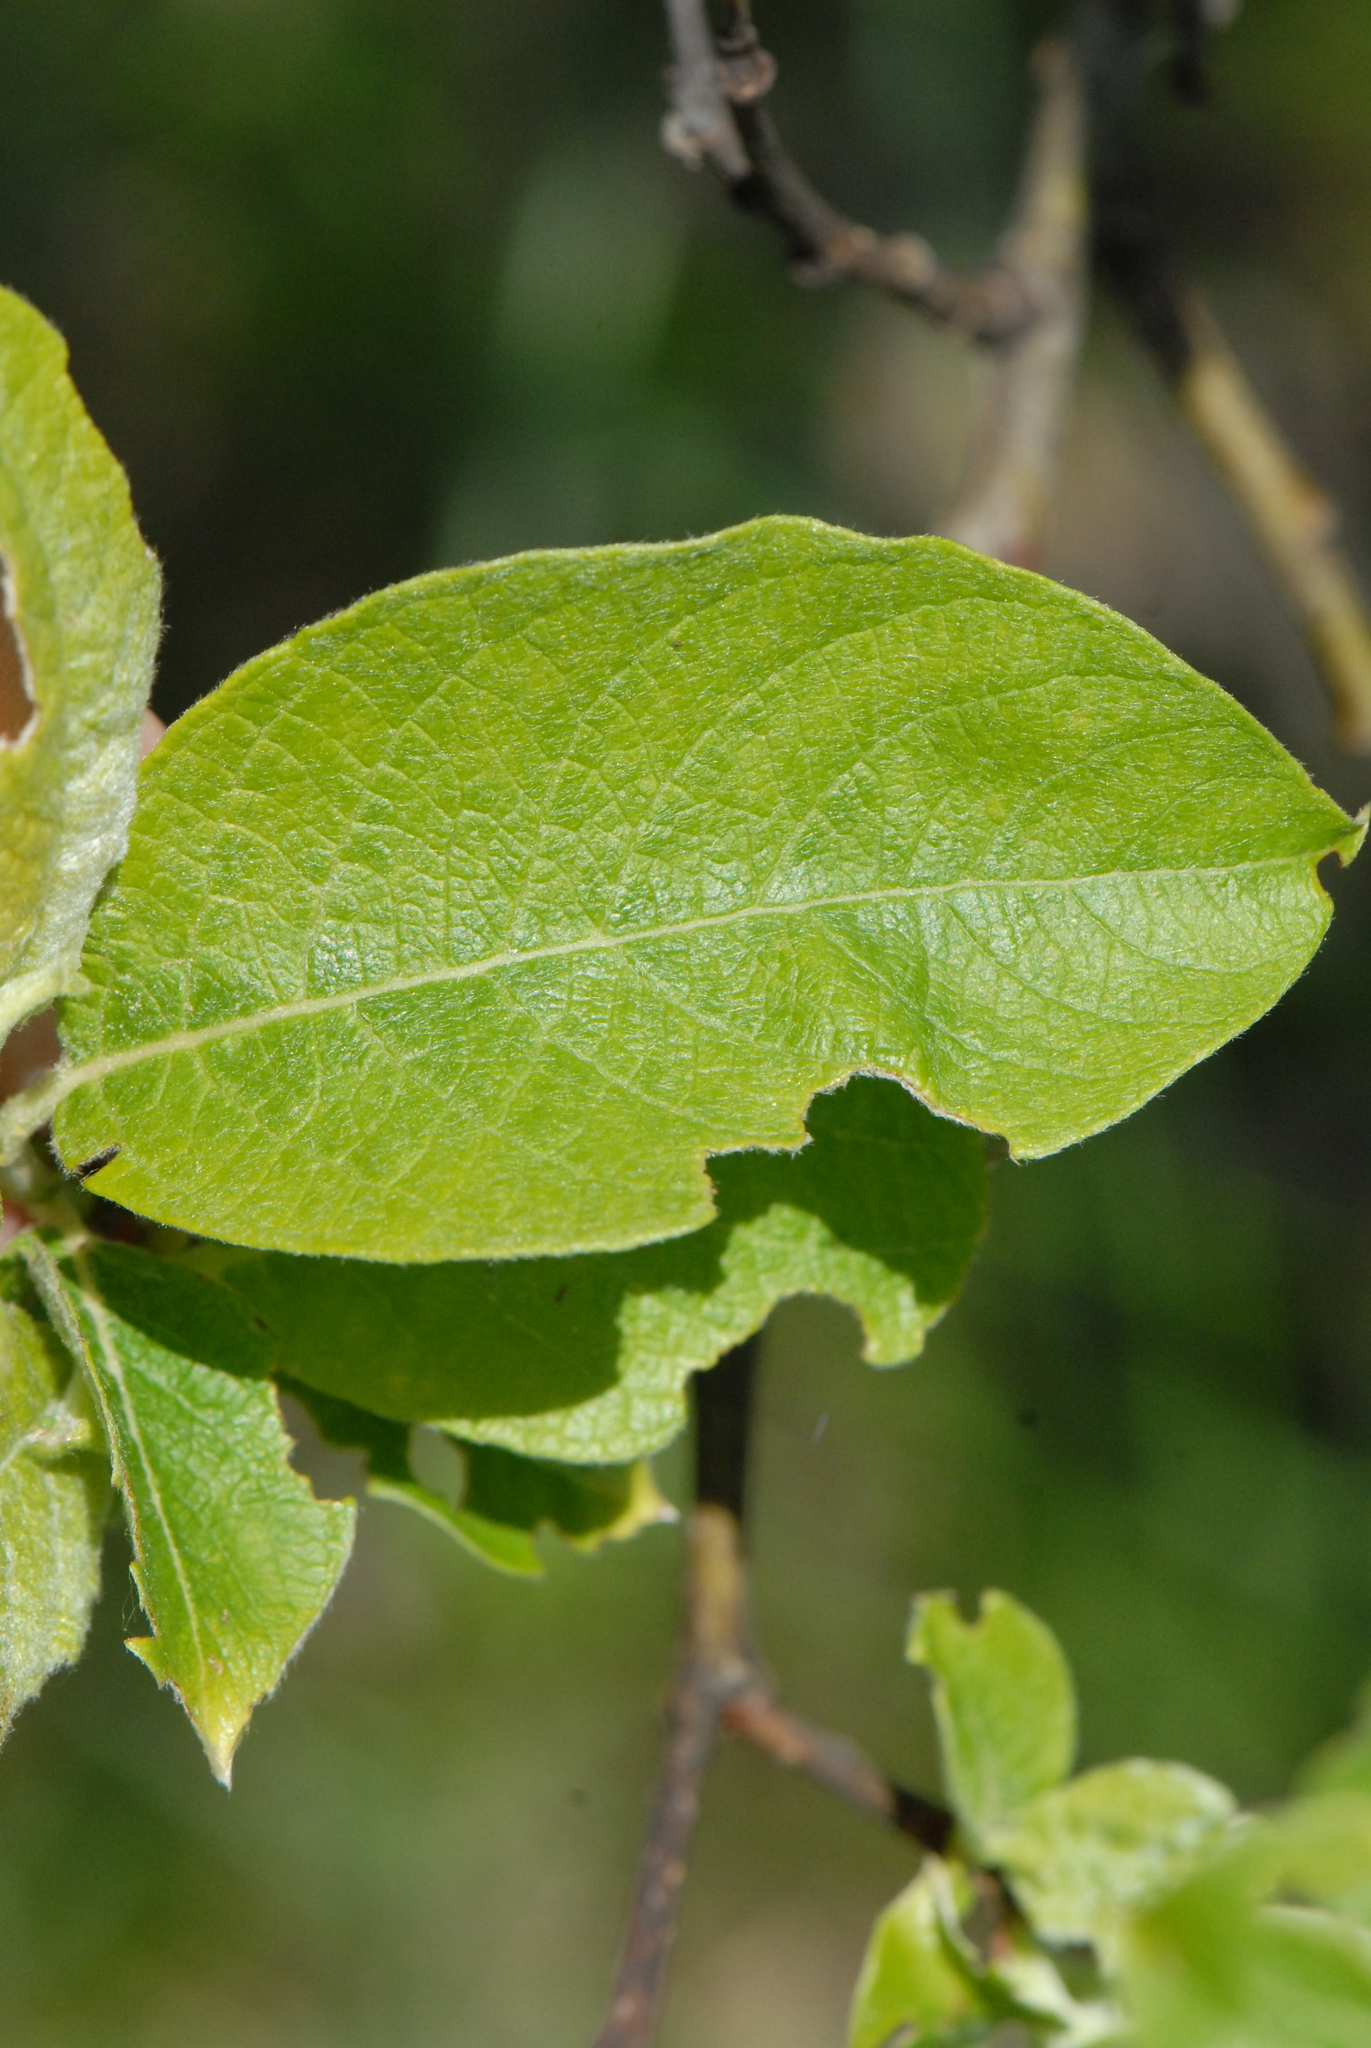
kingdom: Plantae
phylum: Tracheophyta
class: Magnoliopsida
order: Malpighiales
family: Salicaceae
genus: Salix
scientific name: Salix caprea
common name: Goat willow
